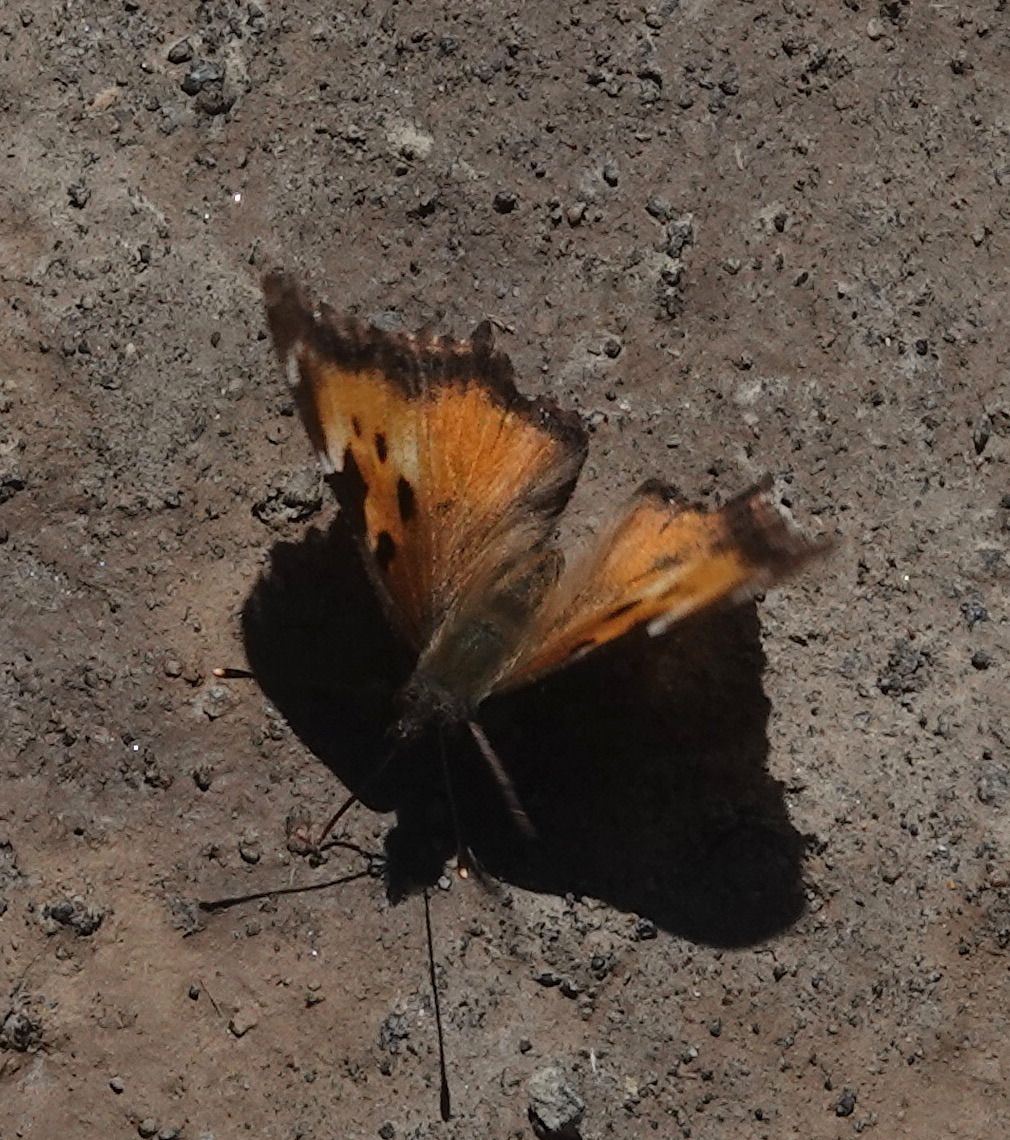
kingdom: Animalia
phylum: Arthropoda
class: Insecta
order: Lepidoptera
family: Nymphalidae
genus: Nymphalis
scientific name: Nymphalis californica
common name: California tortoiseshell
